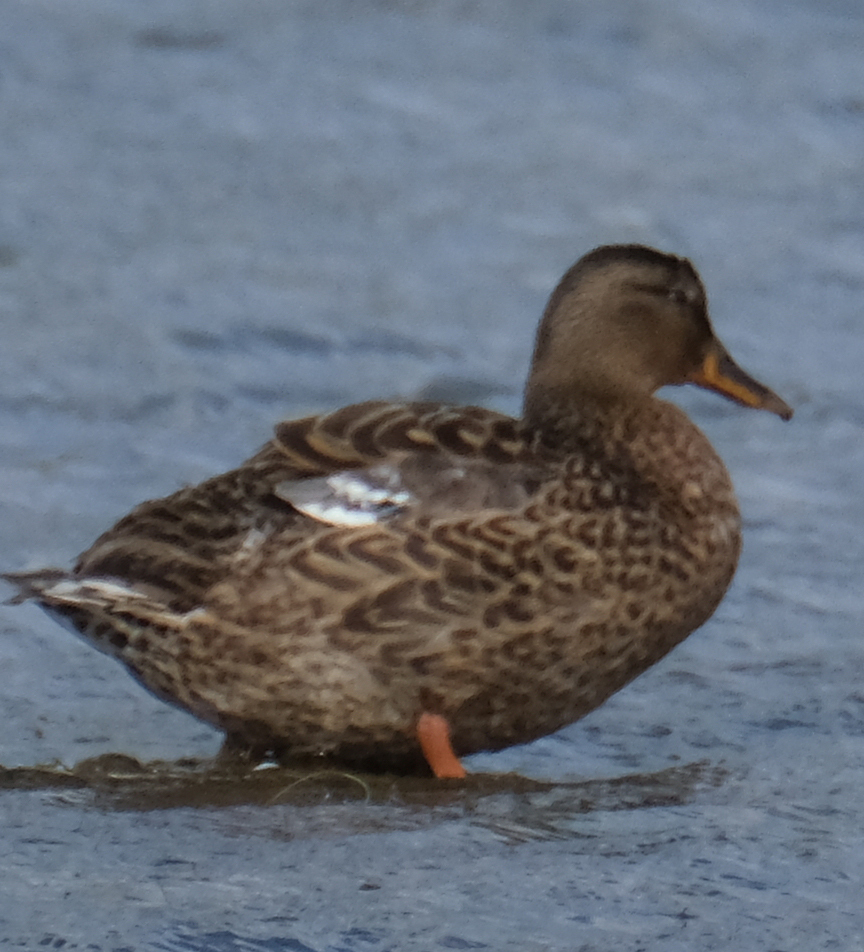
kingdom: Animalia
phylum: Chordata
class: Aves
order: Anseriformes
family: Anatidae
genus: Anas
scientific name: Anas platyrhynchos
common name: Mallard
